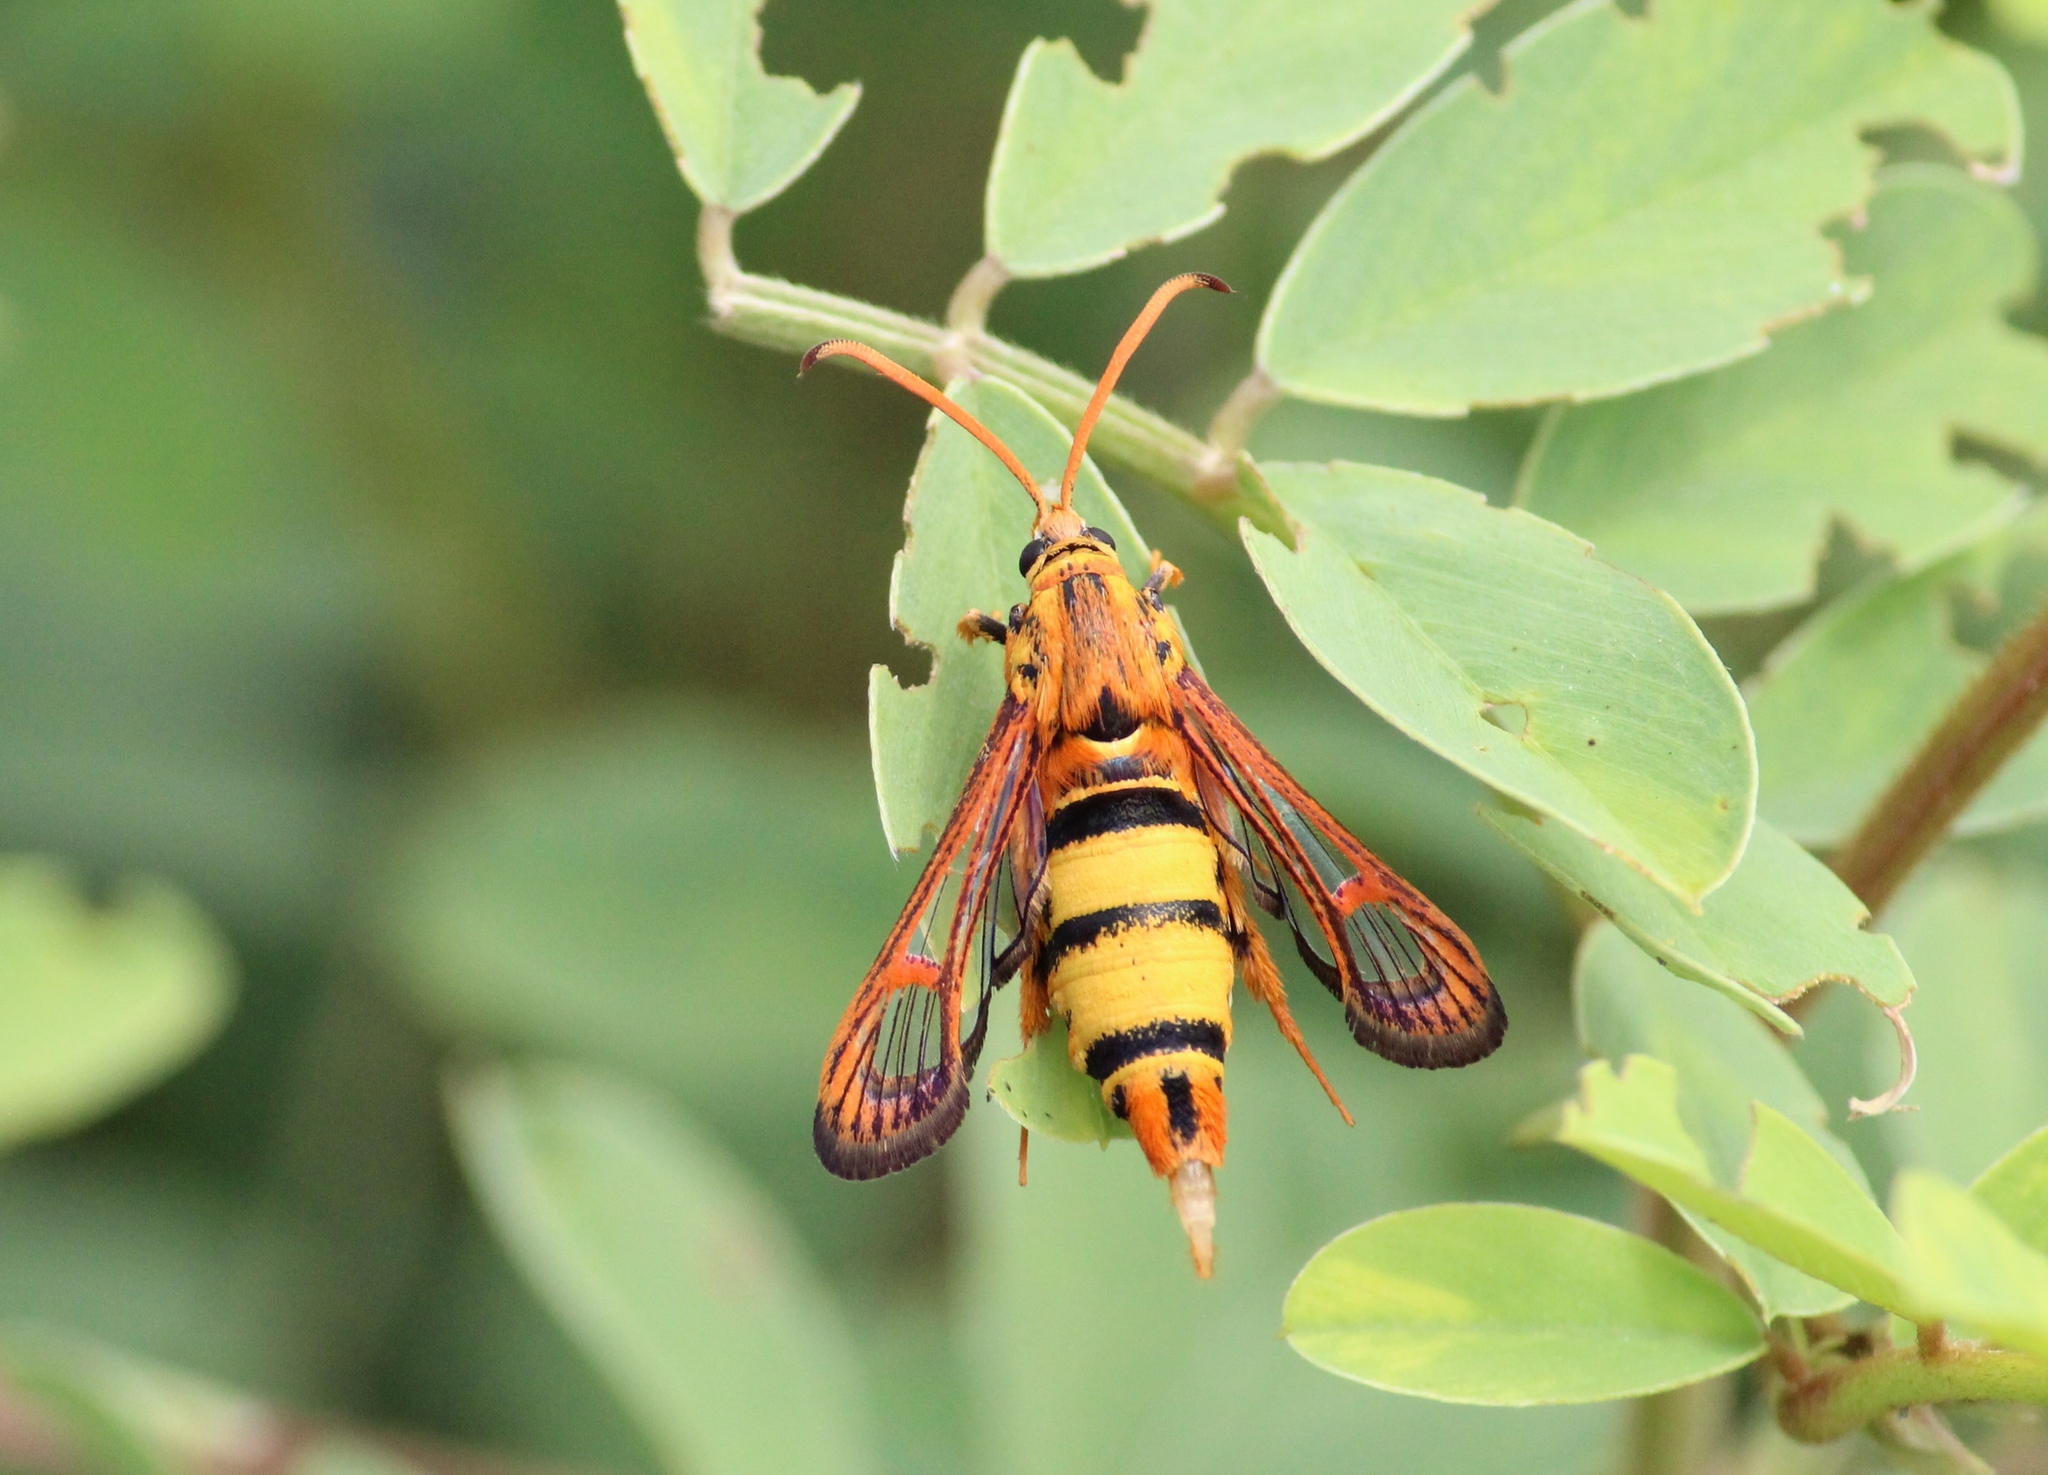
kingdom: Animalia
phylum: Arthropoda
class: Insecta
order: Lepidoptera
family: Sesiidae
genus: Lepidopoda
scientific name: Lepidopoda heterogyna
